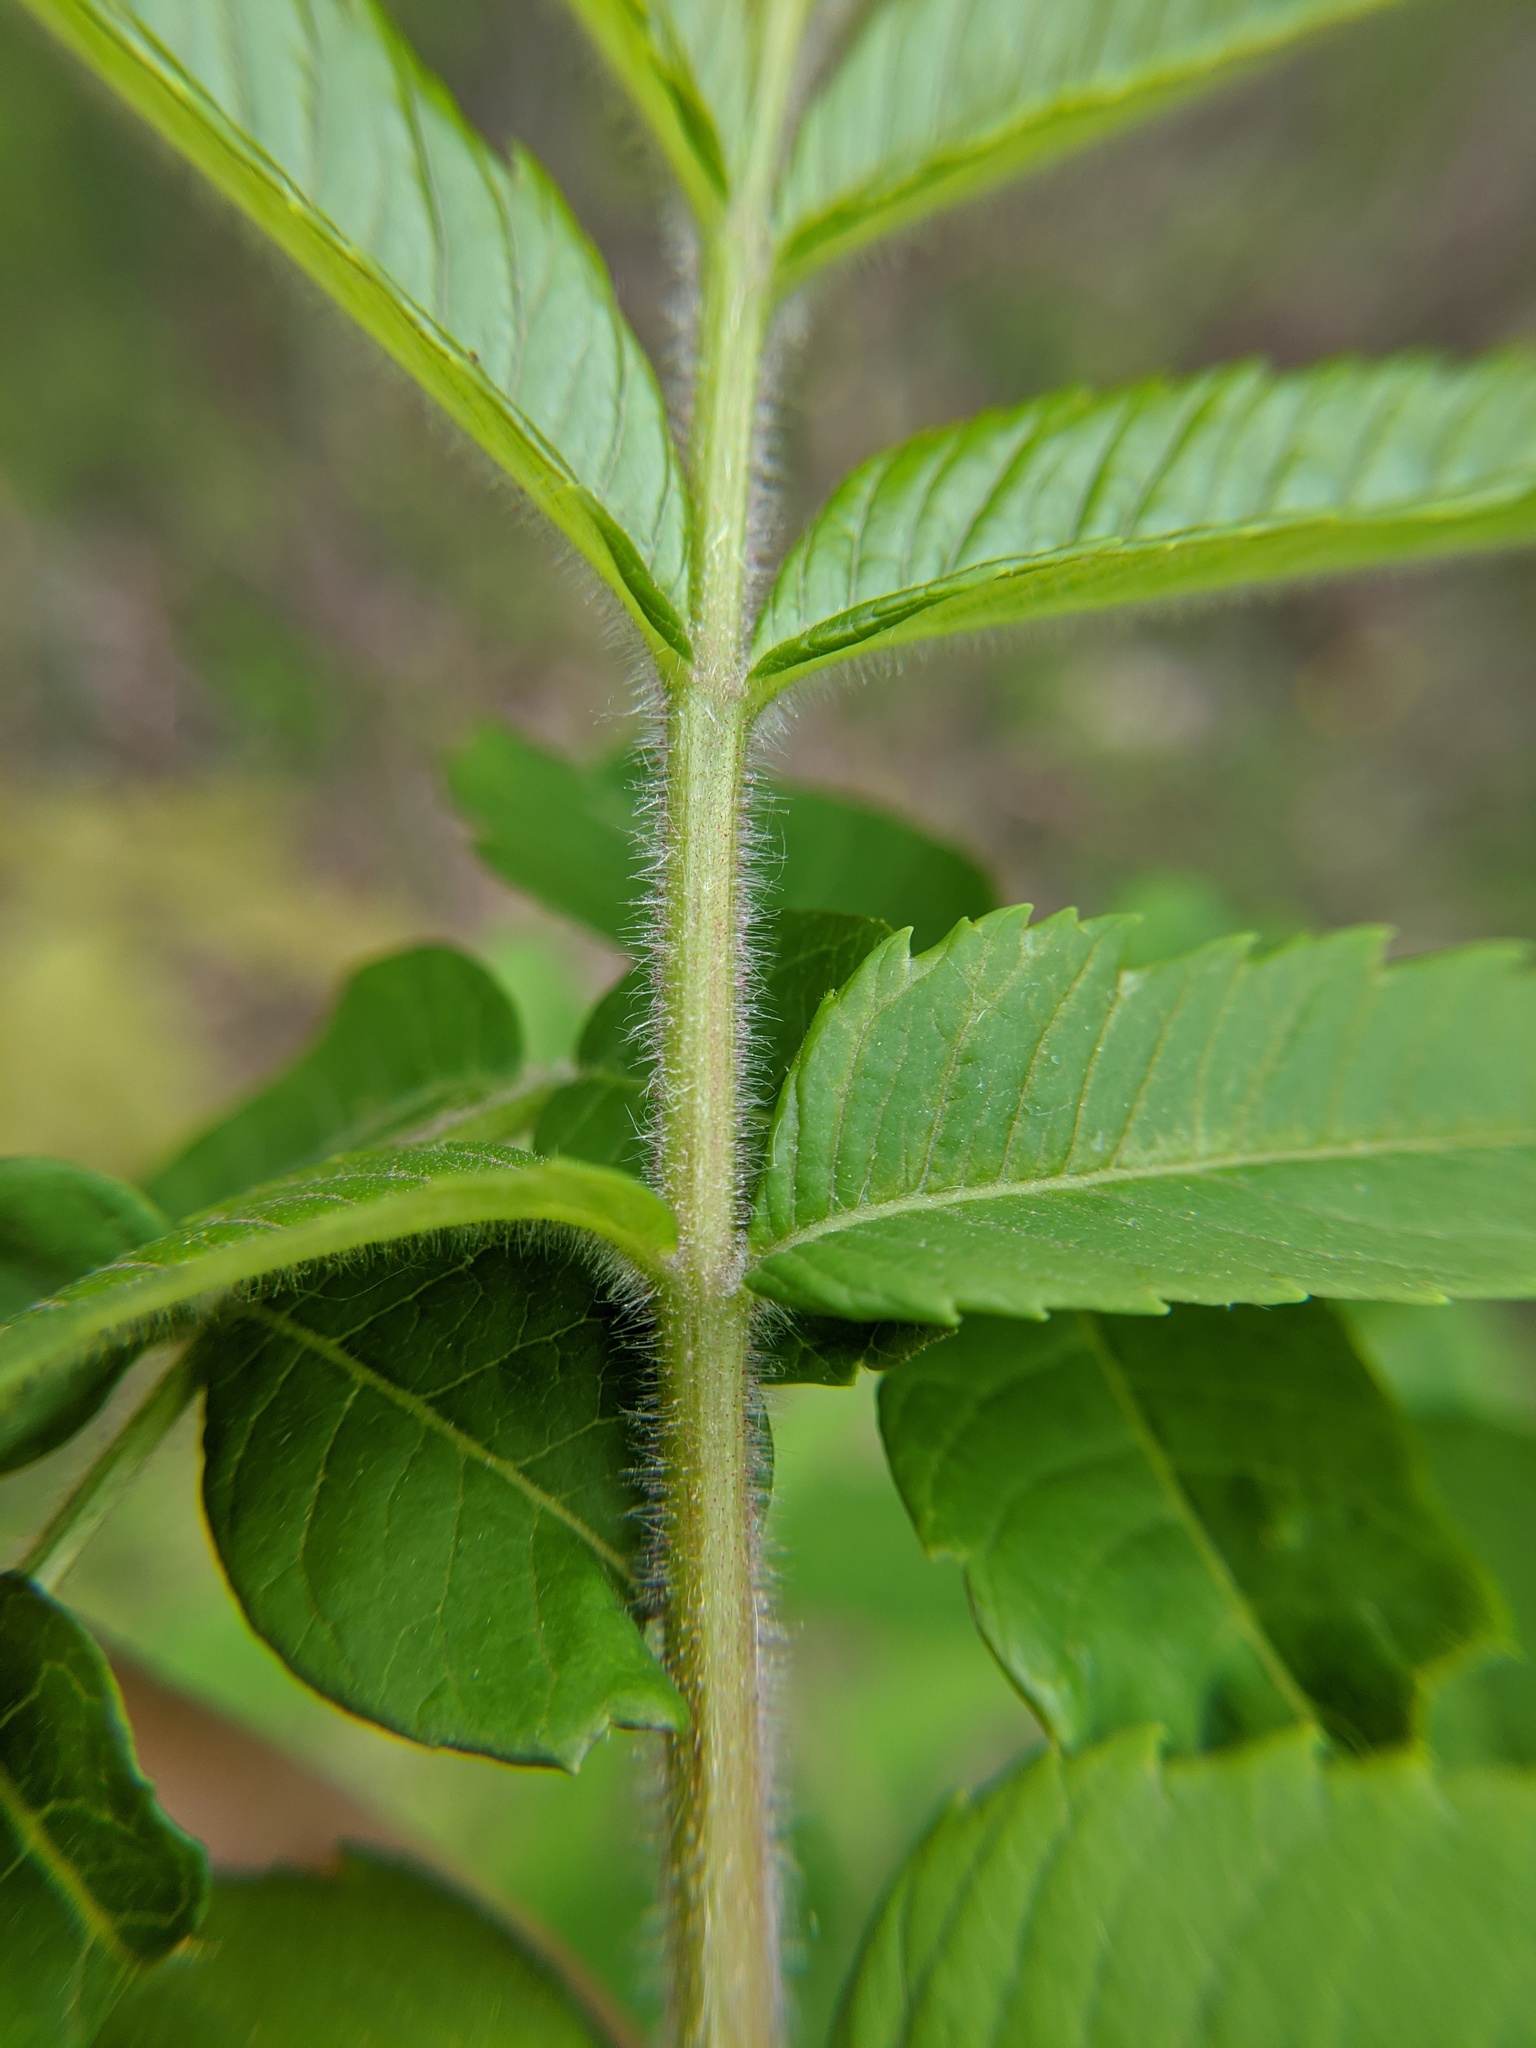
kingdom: Plantae
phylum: Tracheophyta
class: Magnoliopsida
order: Sapindales
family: Anacardiaceae
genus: Rhus
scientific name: Rhus typhina
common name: Staghorn sumac
